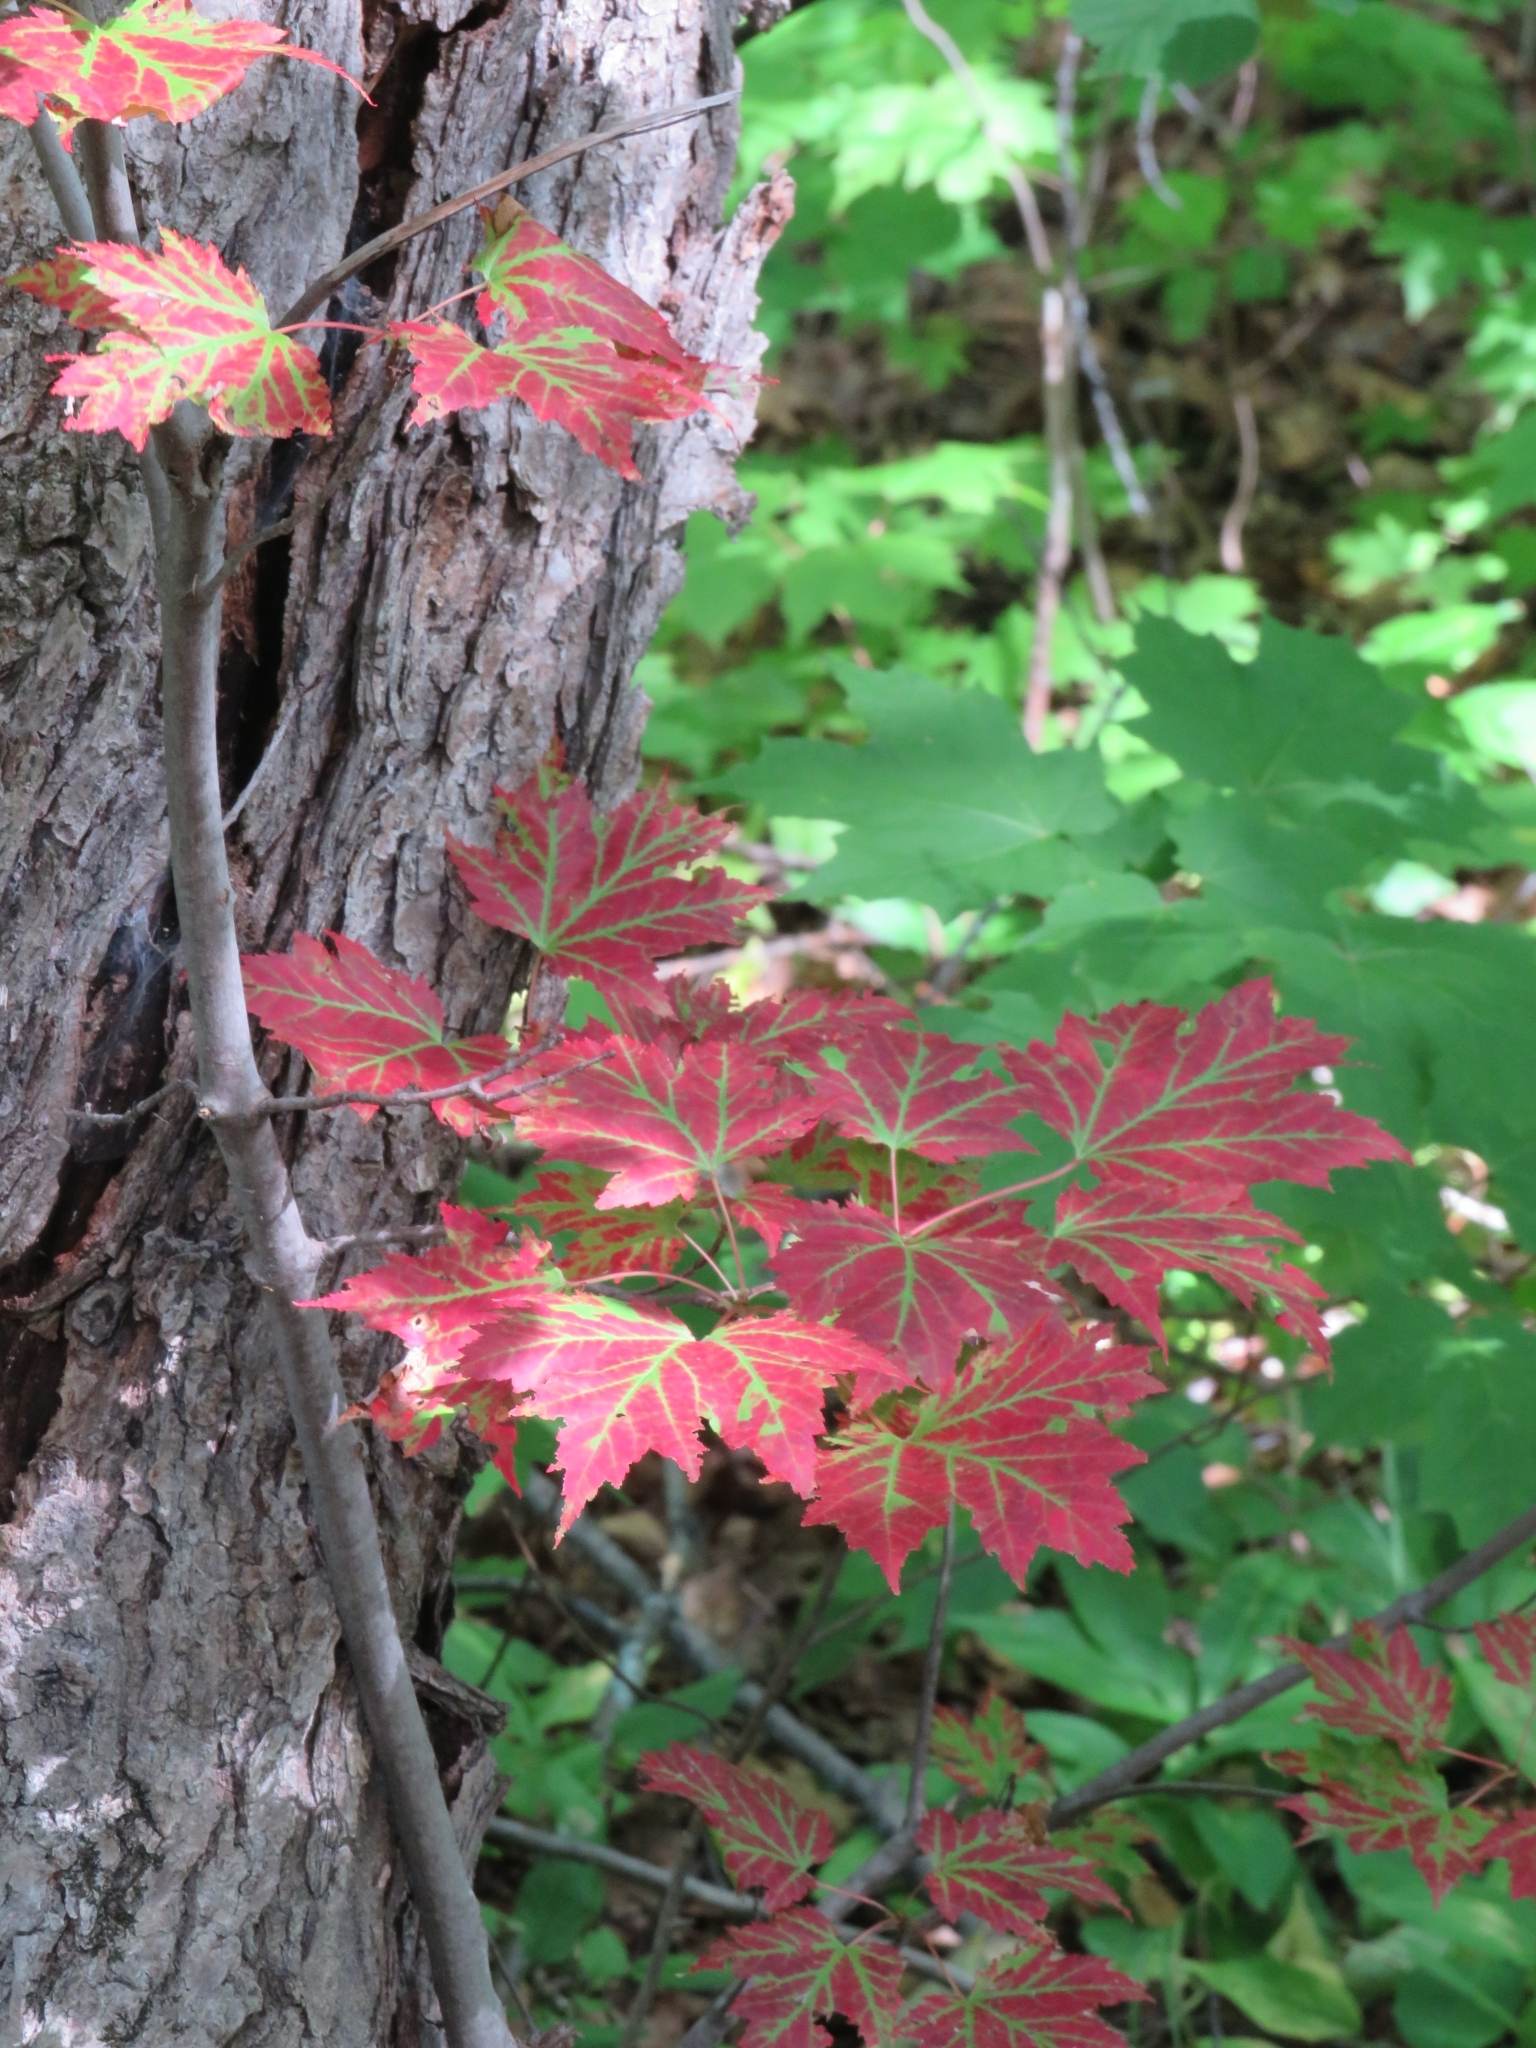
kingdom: Plantae
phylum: Tracheophyta
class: Magnoliopsida
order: Sapindales
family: Sapindaceae
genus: Acer
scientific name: Acer rubrum
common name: Red maple
